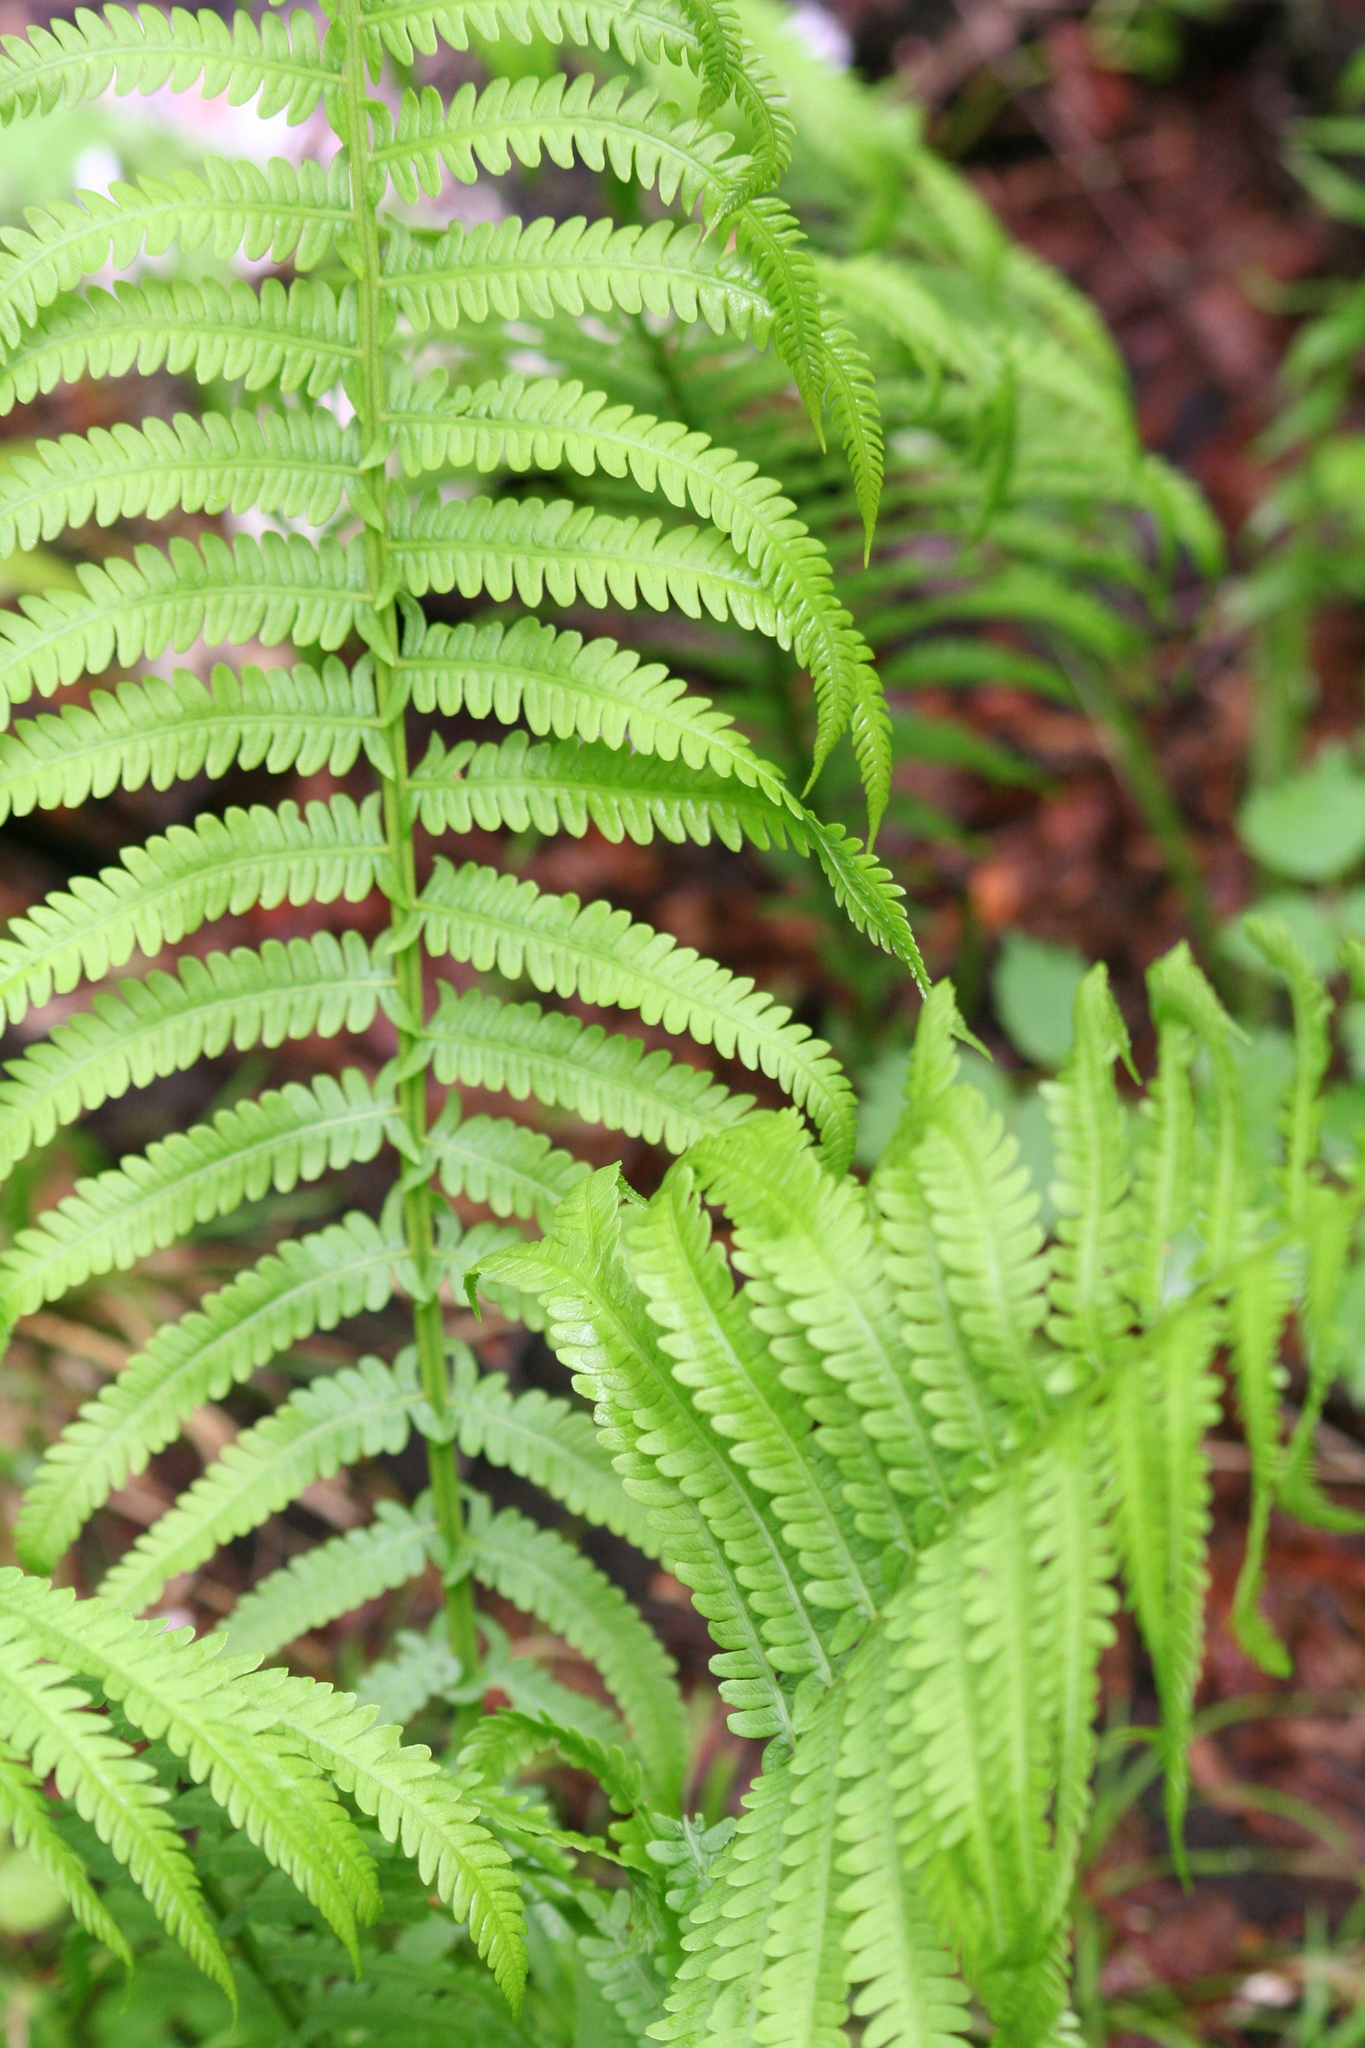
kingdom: Plantae
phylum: Tracheophyta
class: Polypodiopsida
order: Polypodiales
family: Onocleaceae
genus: Matteuccia
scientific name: Matteuccia struthiopteris
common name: Ostrich fern
